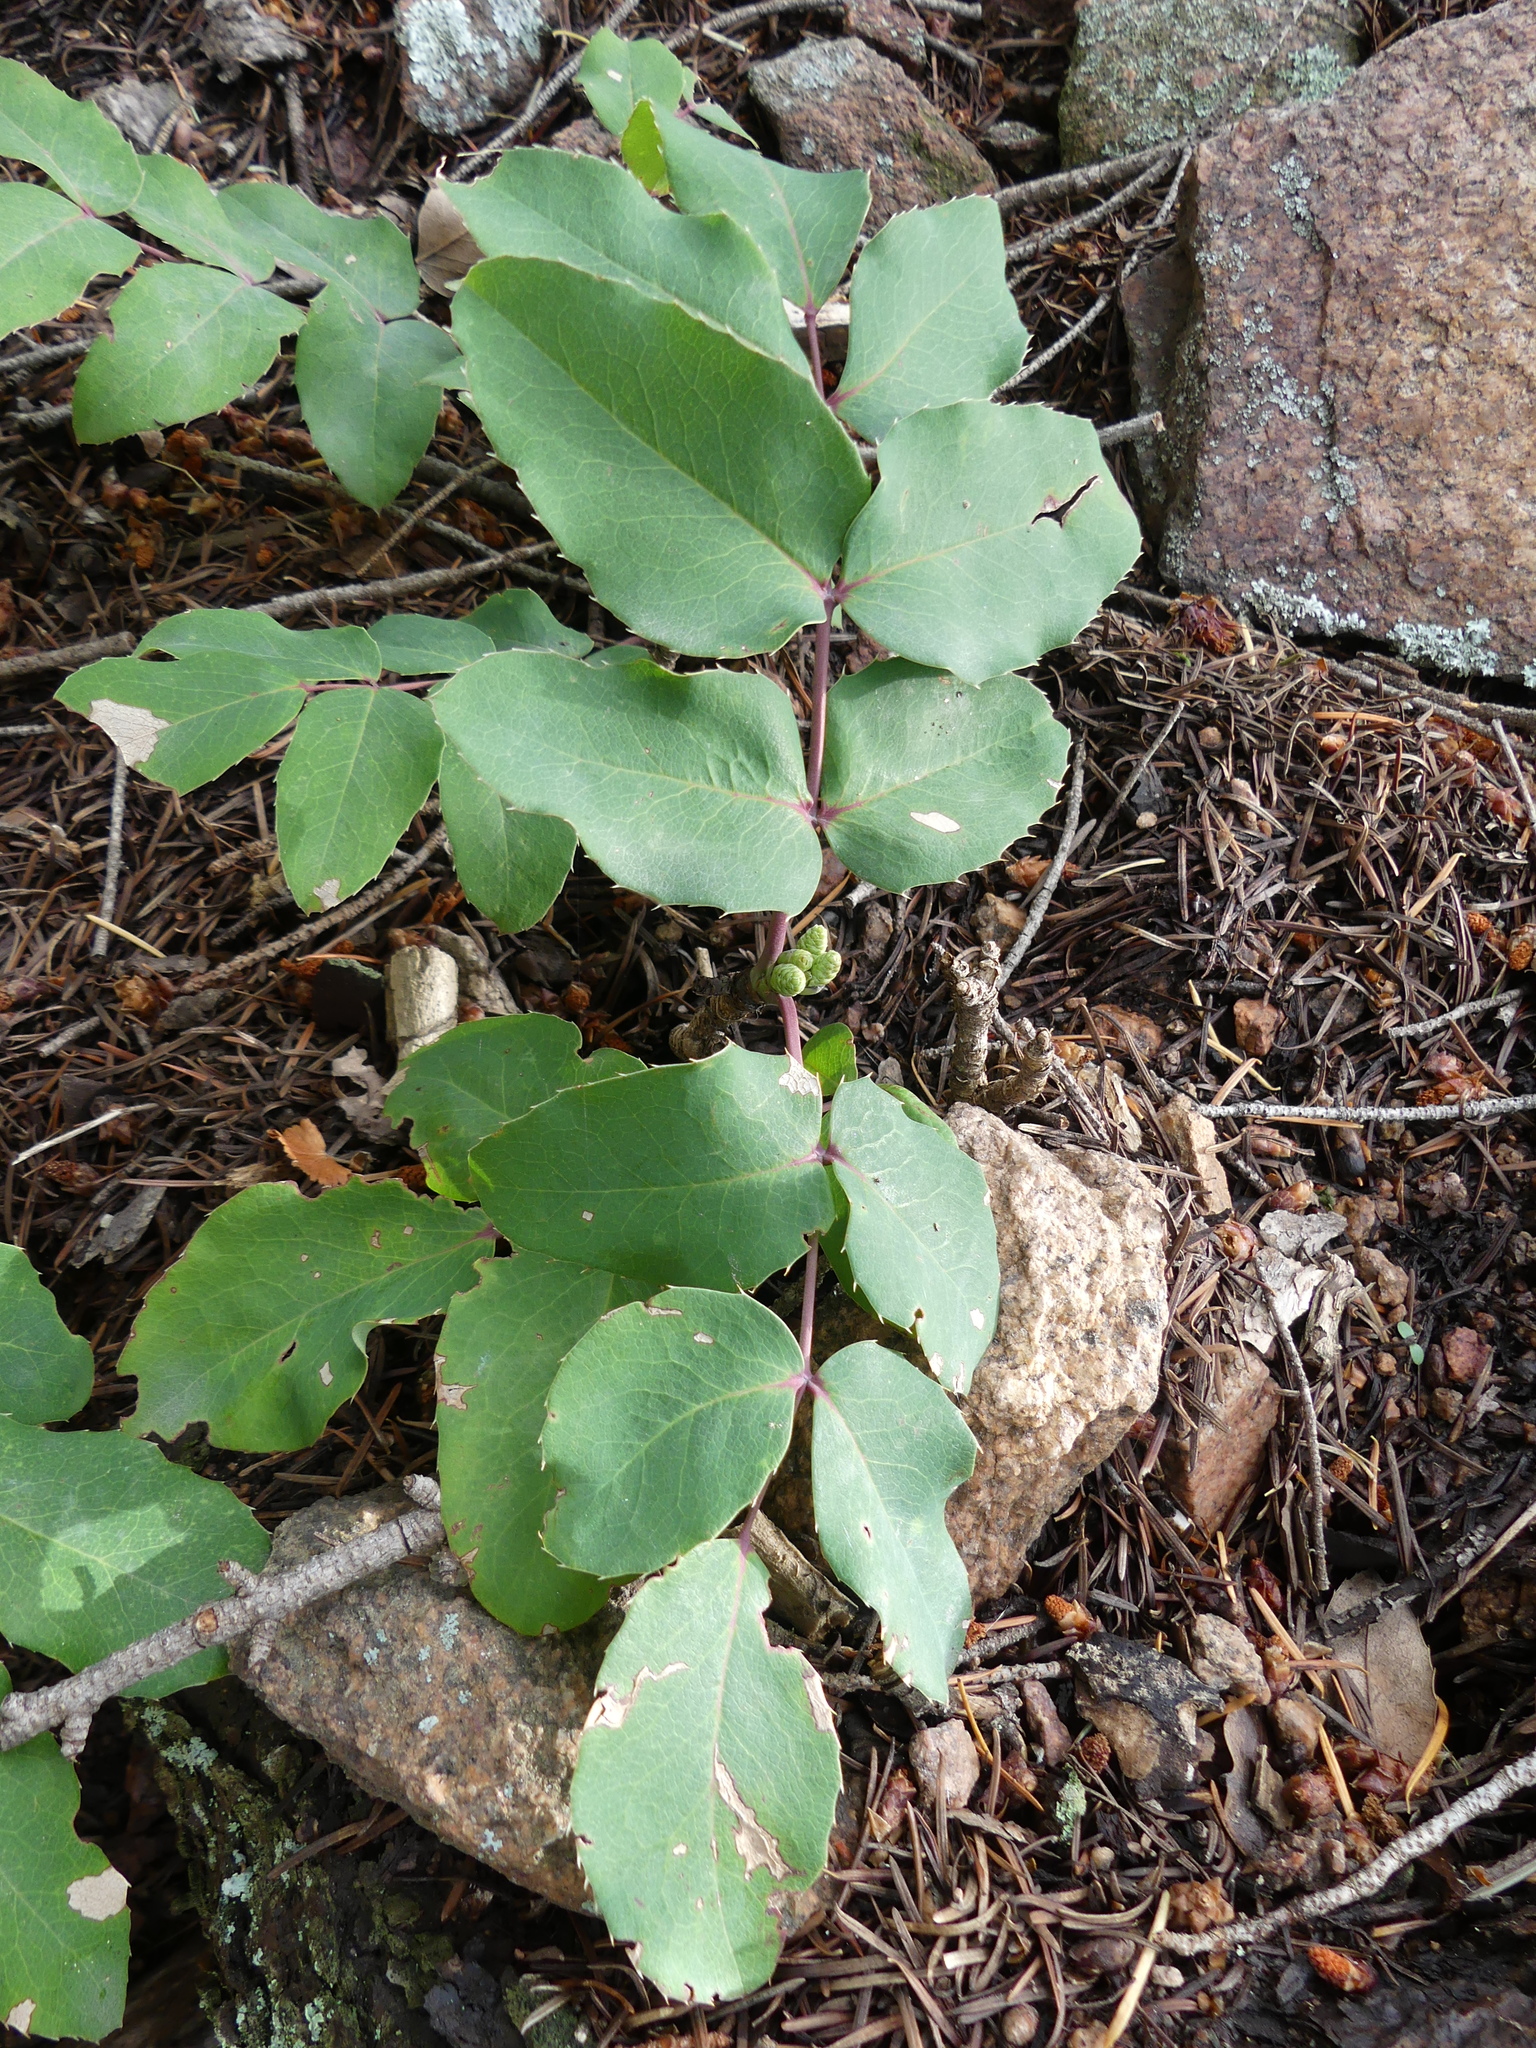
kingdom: Plantae
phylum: Tracheophyta
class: Magnoliopsida
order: Ranunculales
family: Berberidaceae
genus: Mahonia
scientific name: Mahonia repens
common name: Creeping oregon-grape
